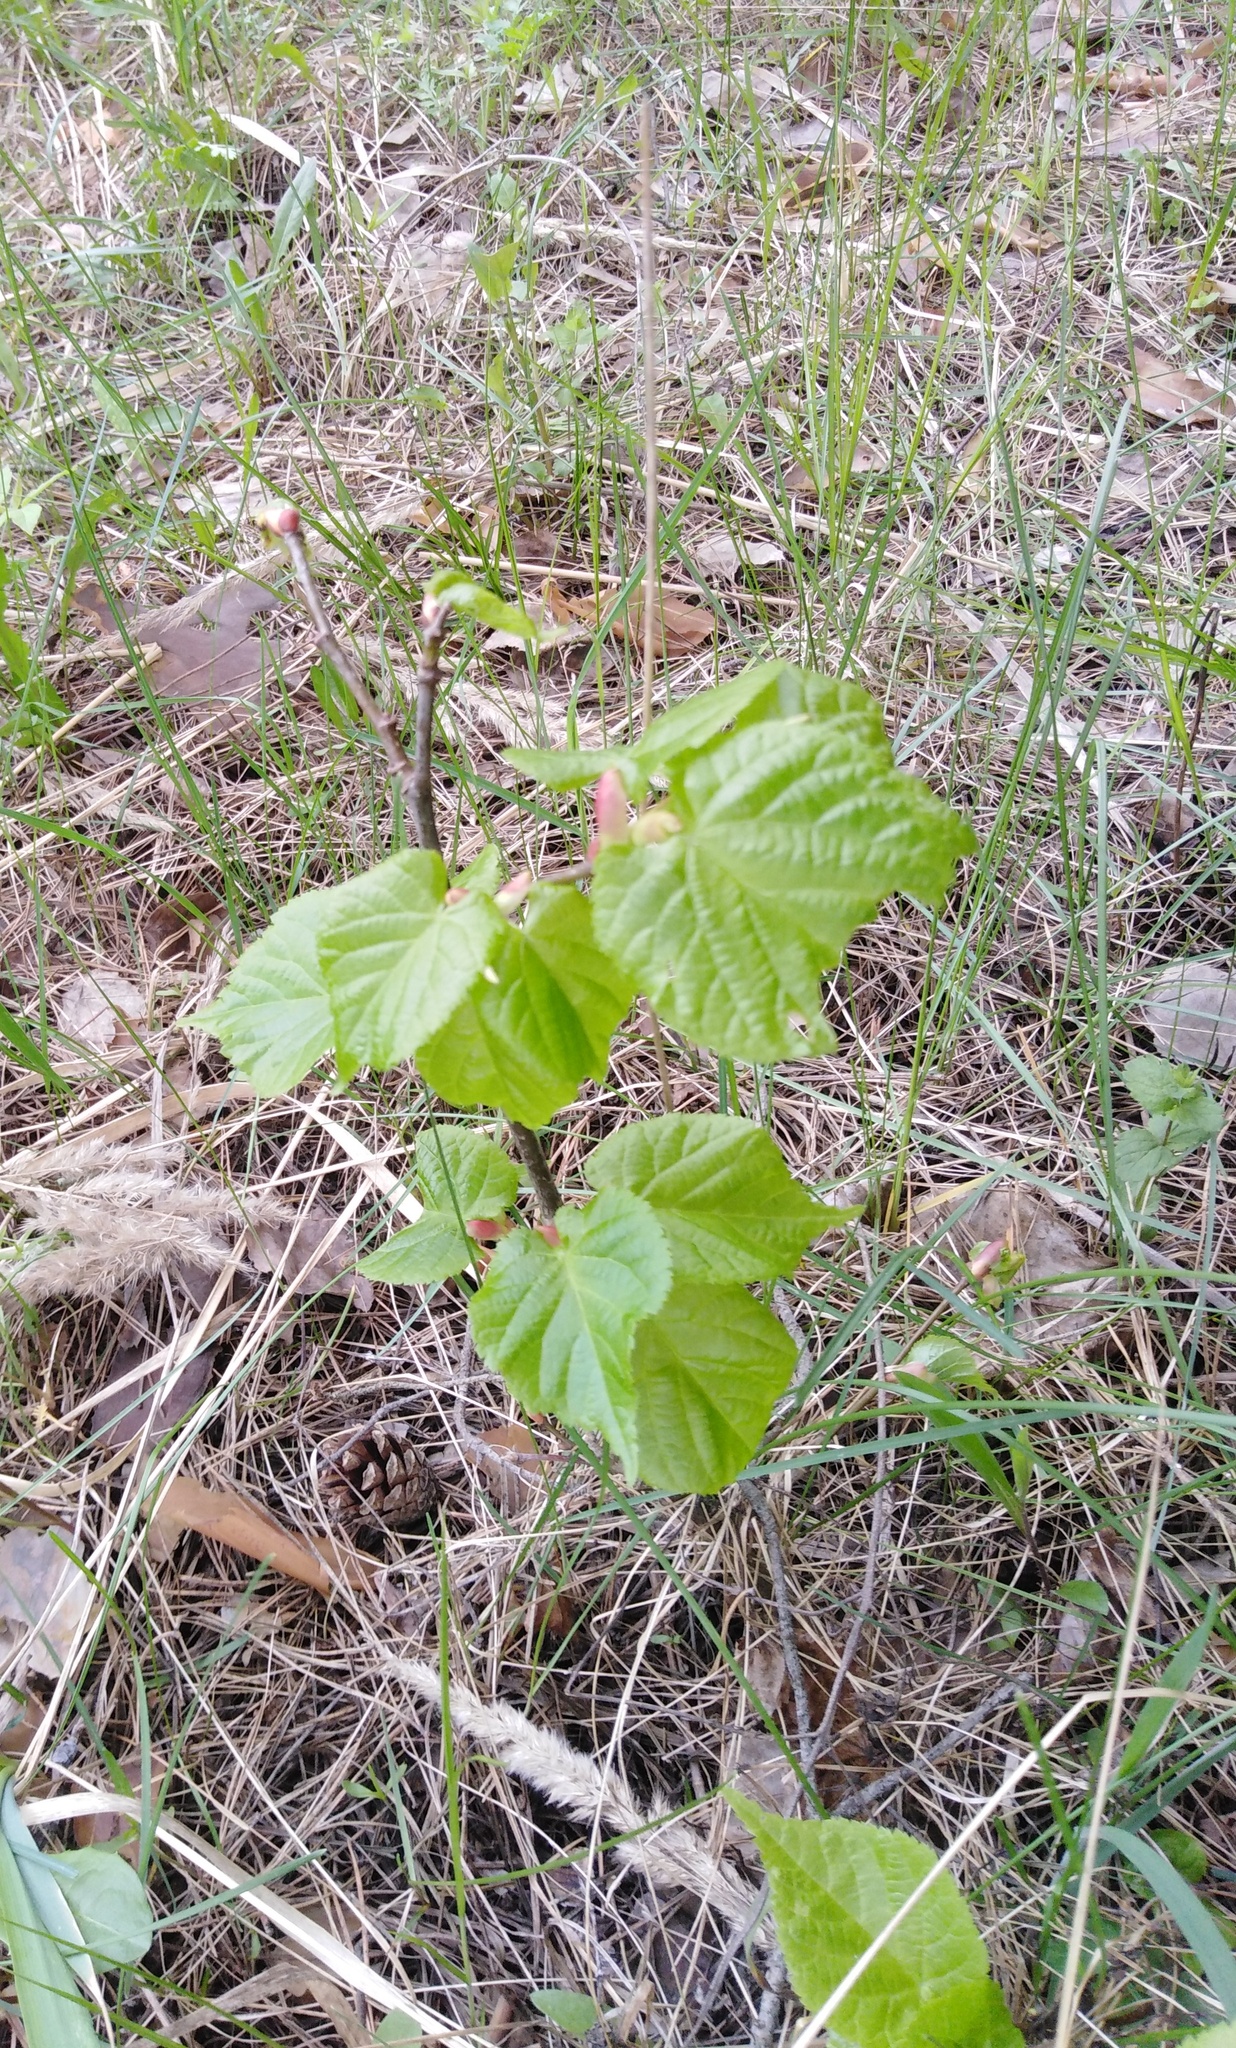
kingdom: Plantae
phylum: Tracheophyta
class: Magnoliopsida
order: Malvales
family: Malvaceae
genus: Tilia
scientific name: Tilia cordata
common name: Small-leaved lime
